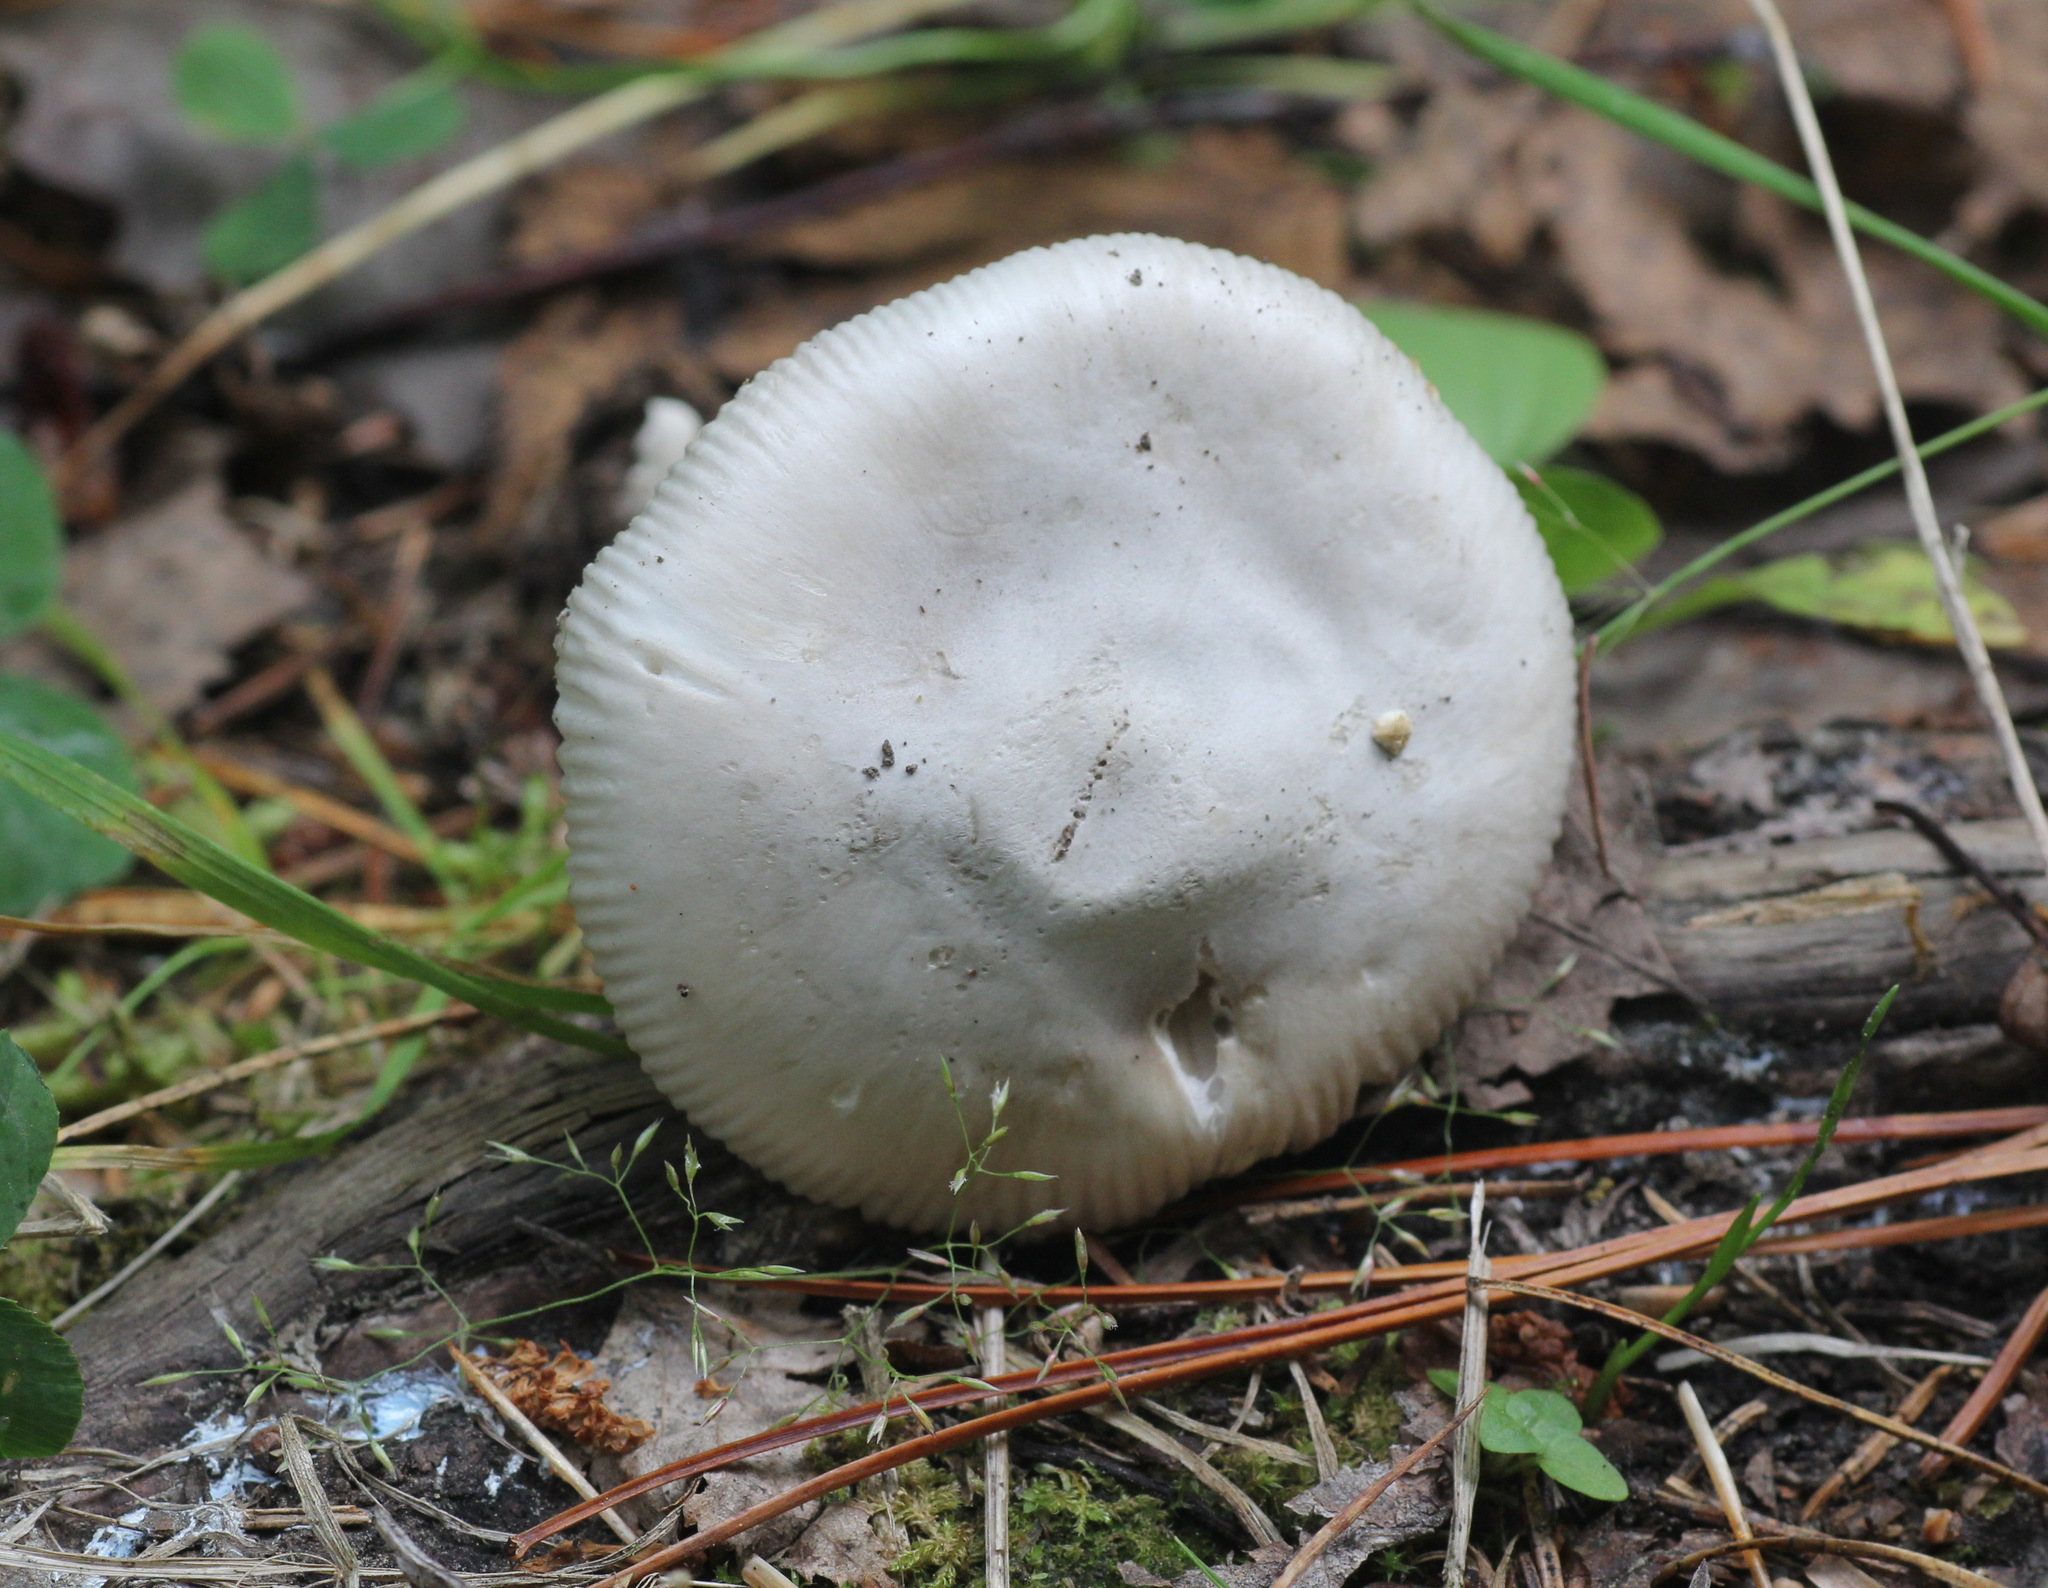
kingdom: Fungi
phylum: Basidiomycota
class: Agaricomycetes
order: Agaricales
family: Amanitaceae
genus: Amanita
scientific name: Amanita vaginata
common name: Grisette
